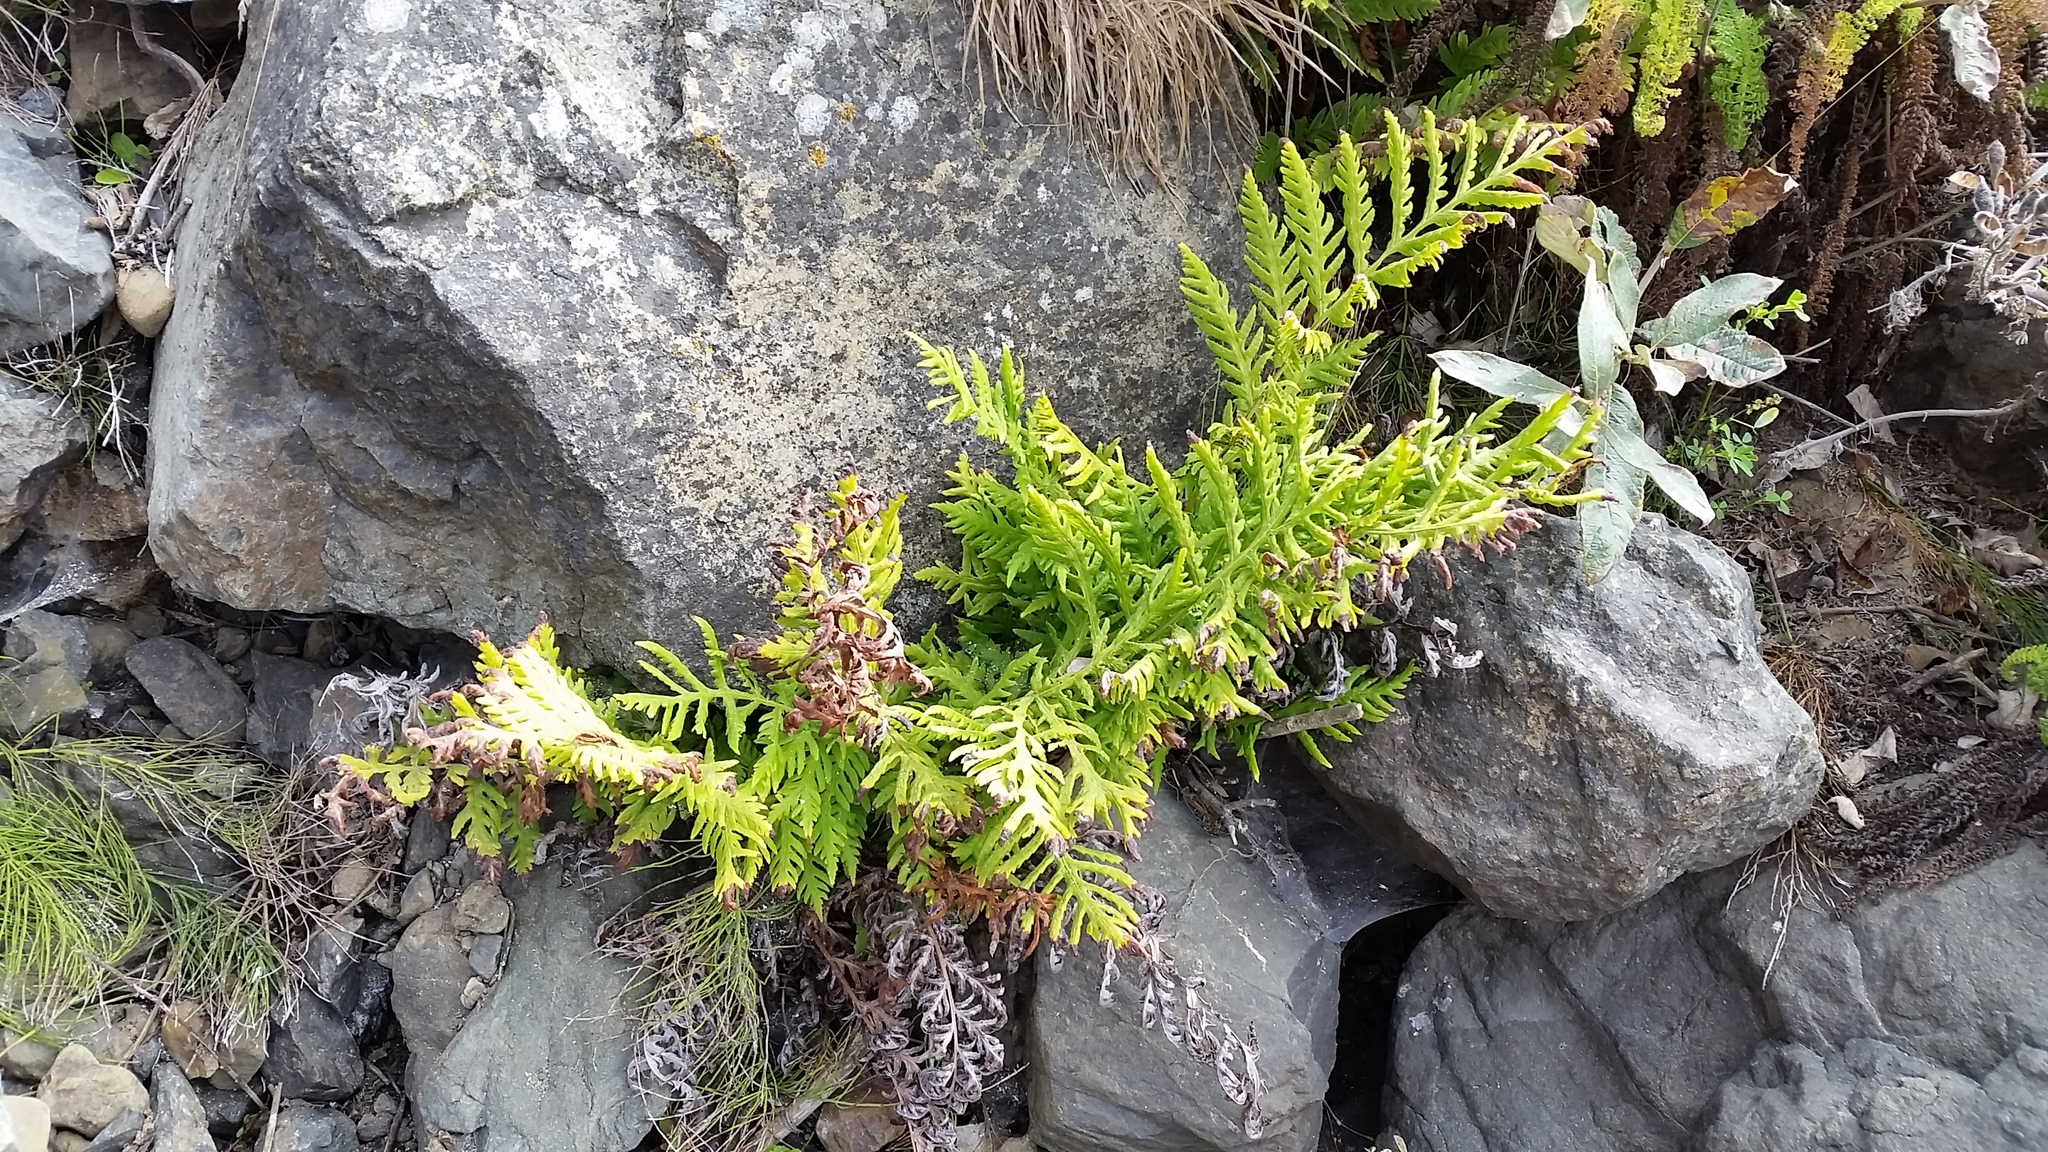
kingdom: Plantae
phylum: Tracheophyta
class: Polypodiopsida
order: Polypodiales
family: Blechnaceae
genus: Woodwardia
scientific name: Woodwardia fimbriata
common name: Giant chain fern
